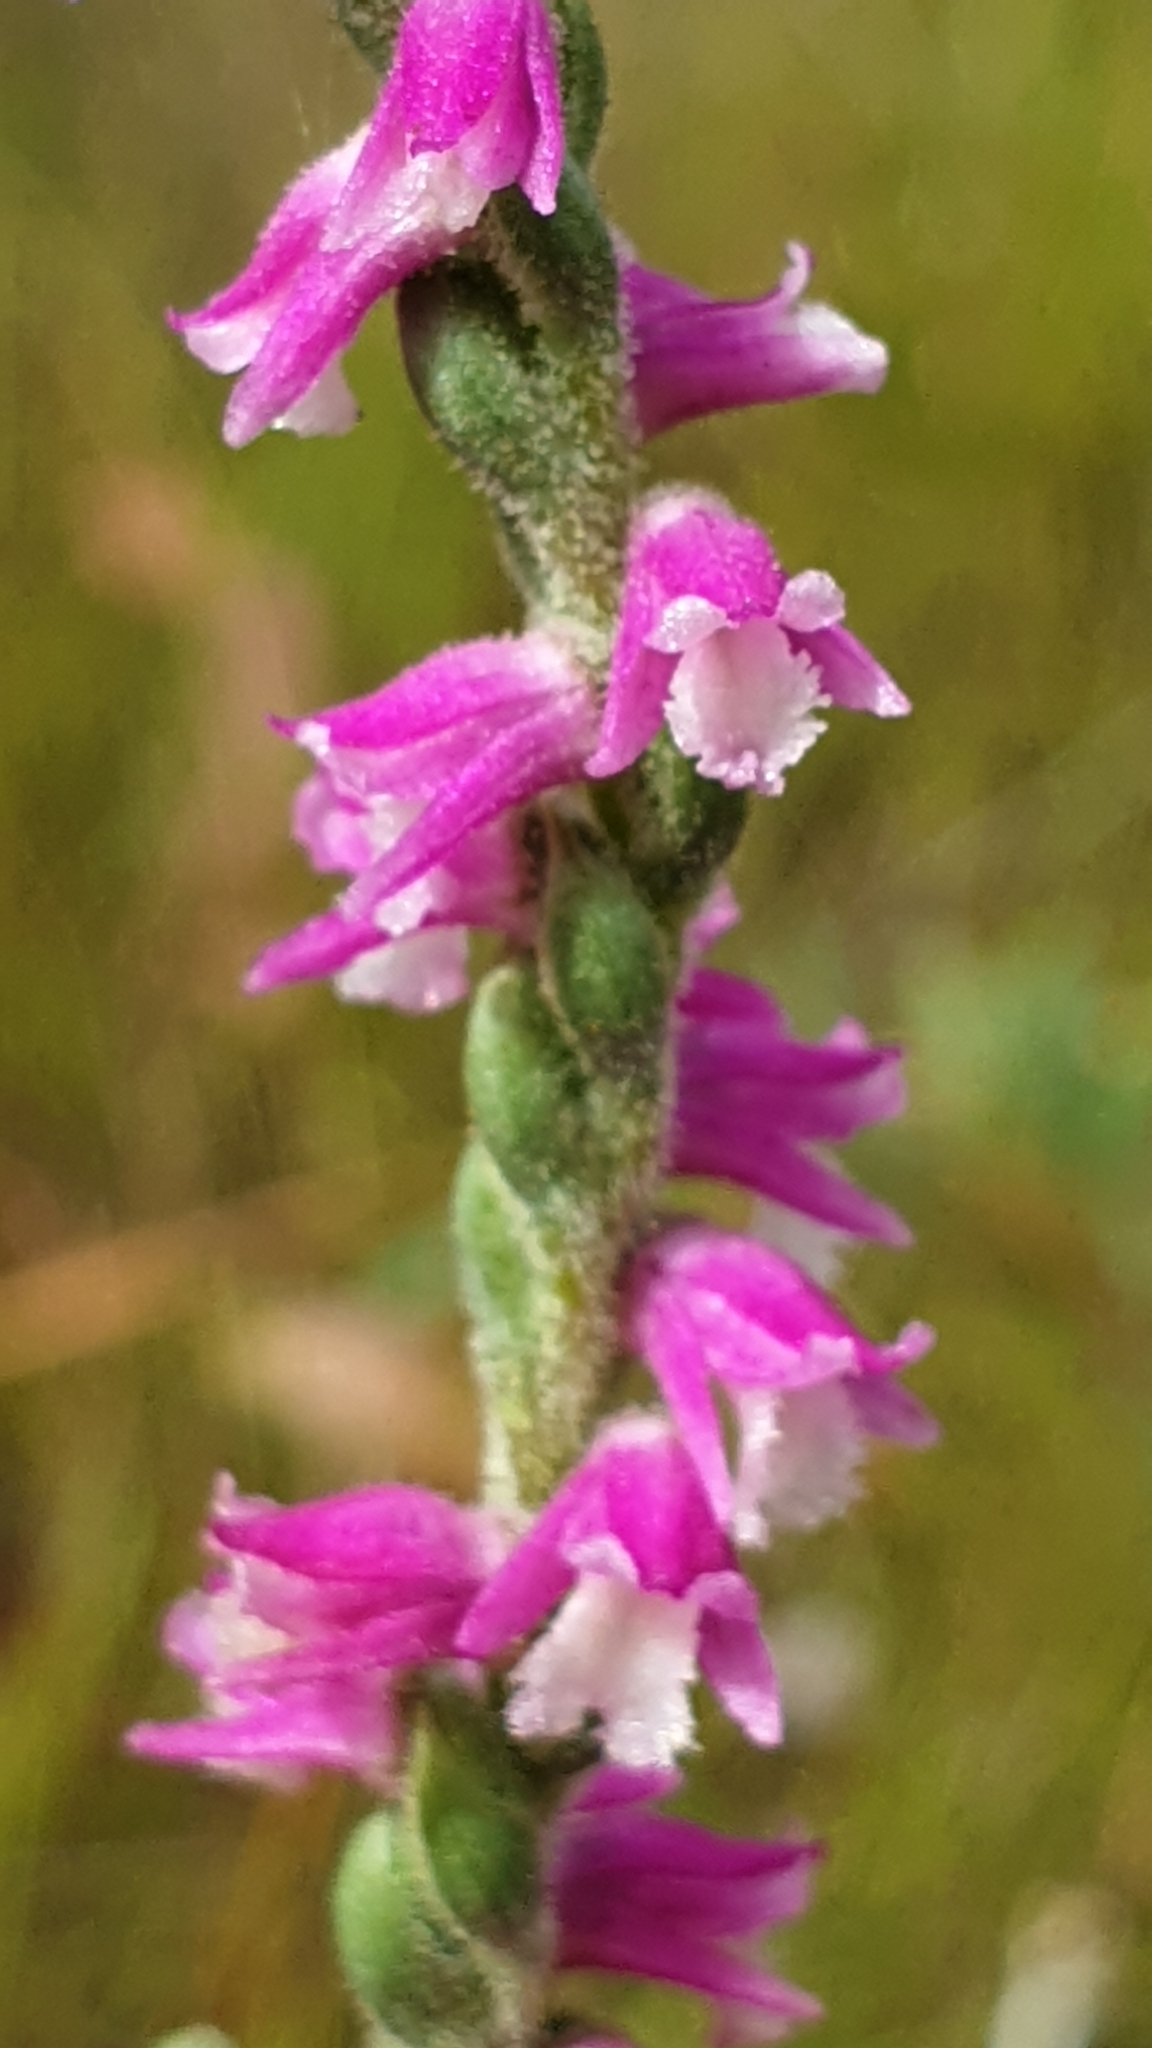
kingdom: Plantae
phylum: Tracheophyta
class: Liliopsida
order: Asparagales
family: Orchidaceae
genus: Spiranthes
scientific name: Spiranthes australis
